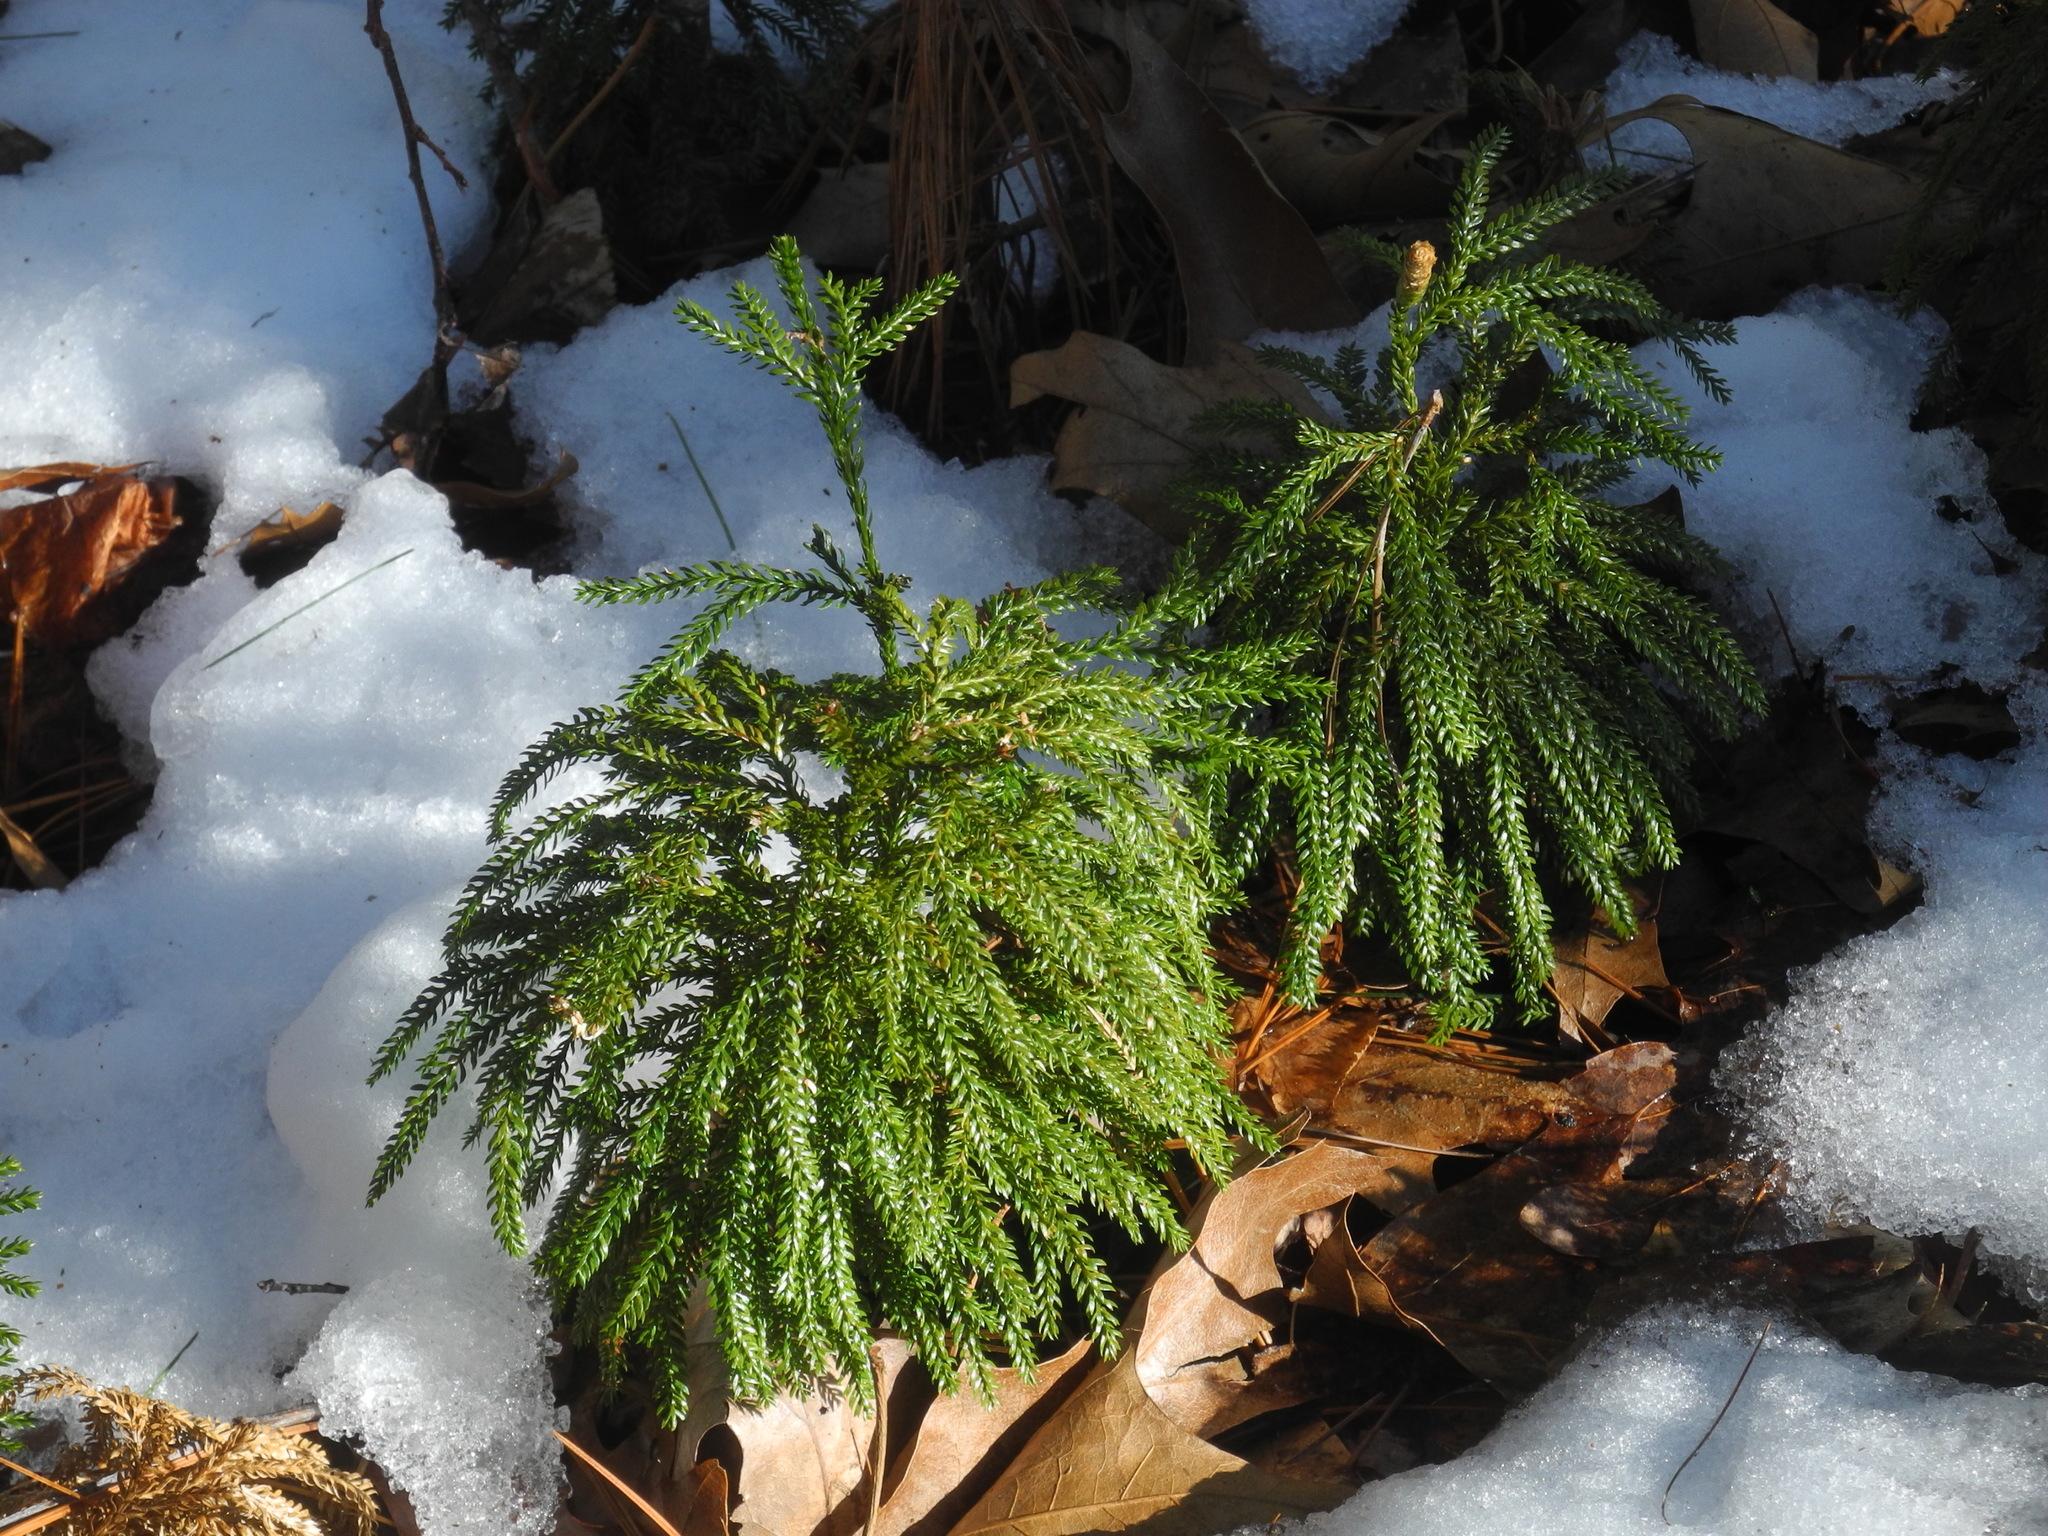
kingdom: Plantae
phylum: Tracheophyta
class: Lycopodiopsida
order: Lycopodiales
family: Lycopodiaceae
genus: Dendrolycopodium
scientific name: Dendrolycopodium obscurum
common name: Common ground-pine
